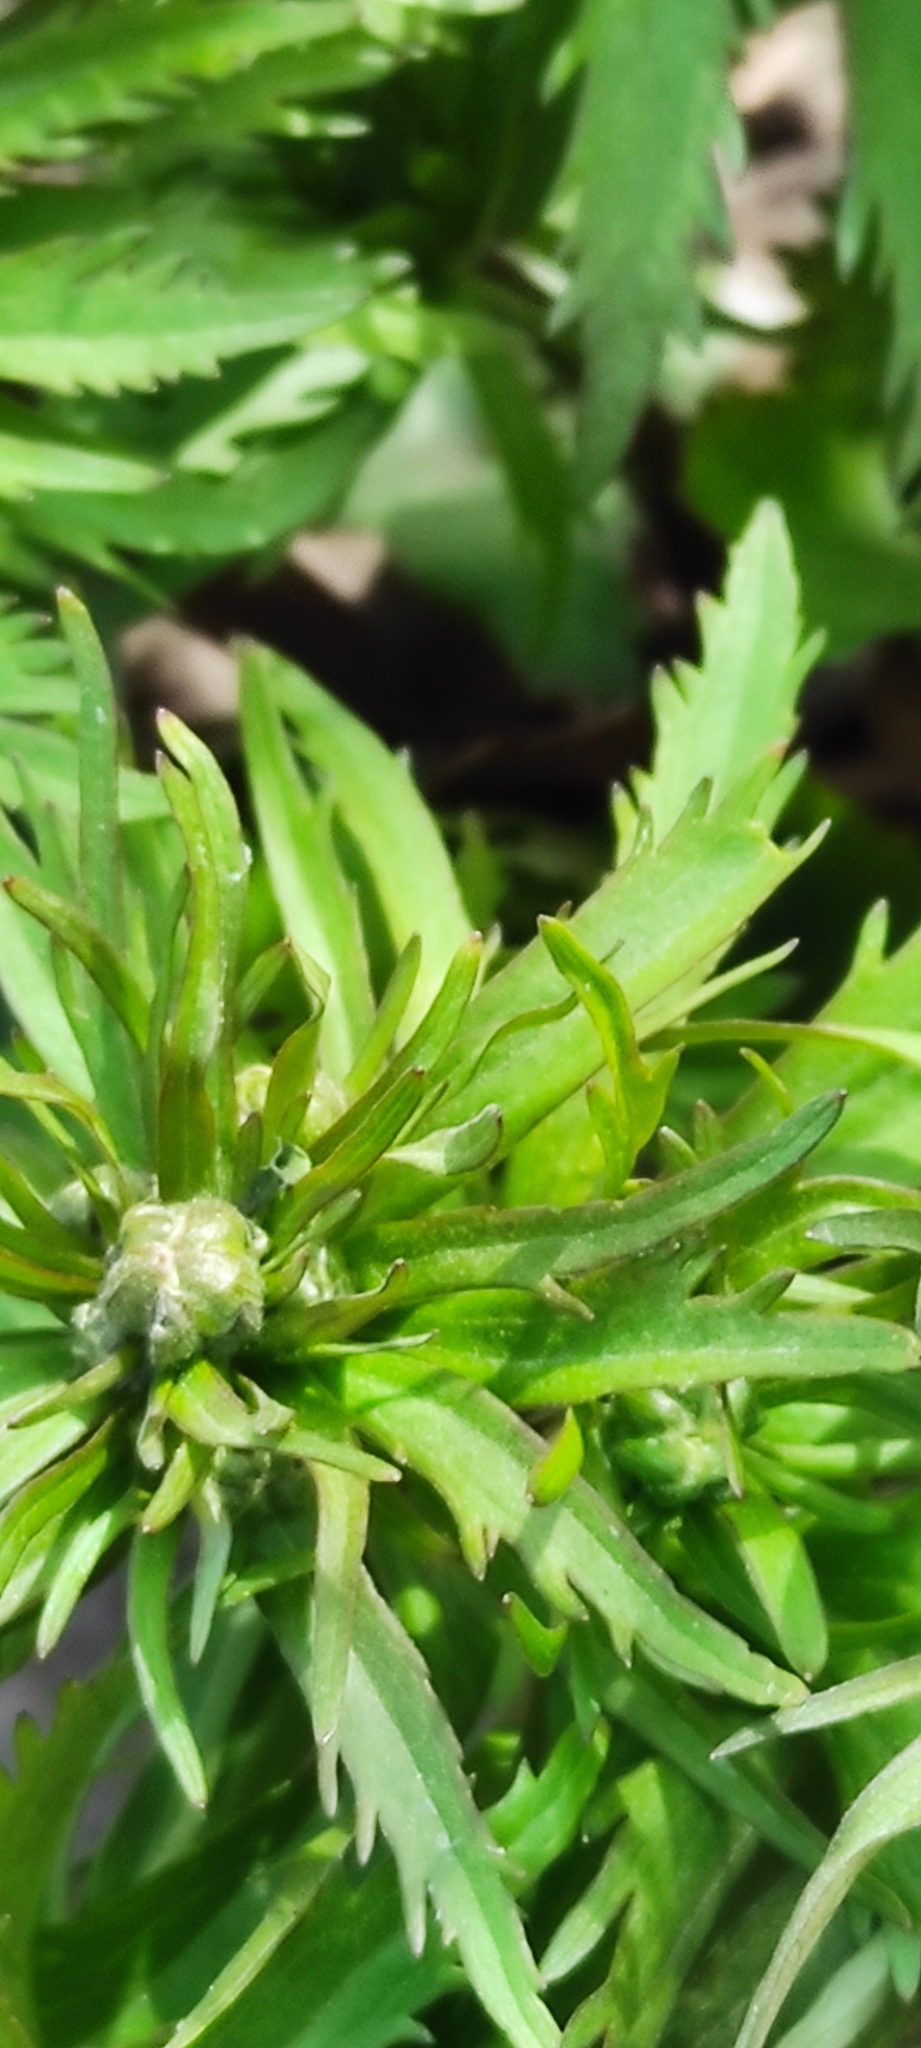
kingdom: Plantae
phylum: Tracheophyta
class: Magnoliopsida
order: Ranunculales
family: Ranunculaceae
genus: Ranunculus
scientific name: Ranunculus cassubicus
